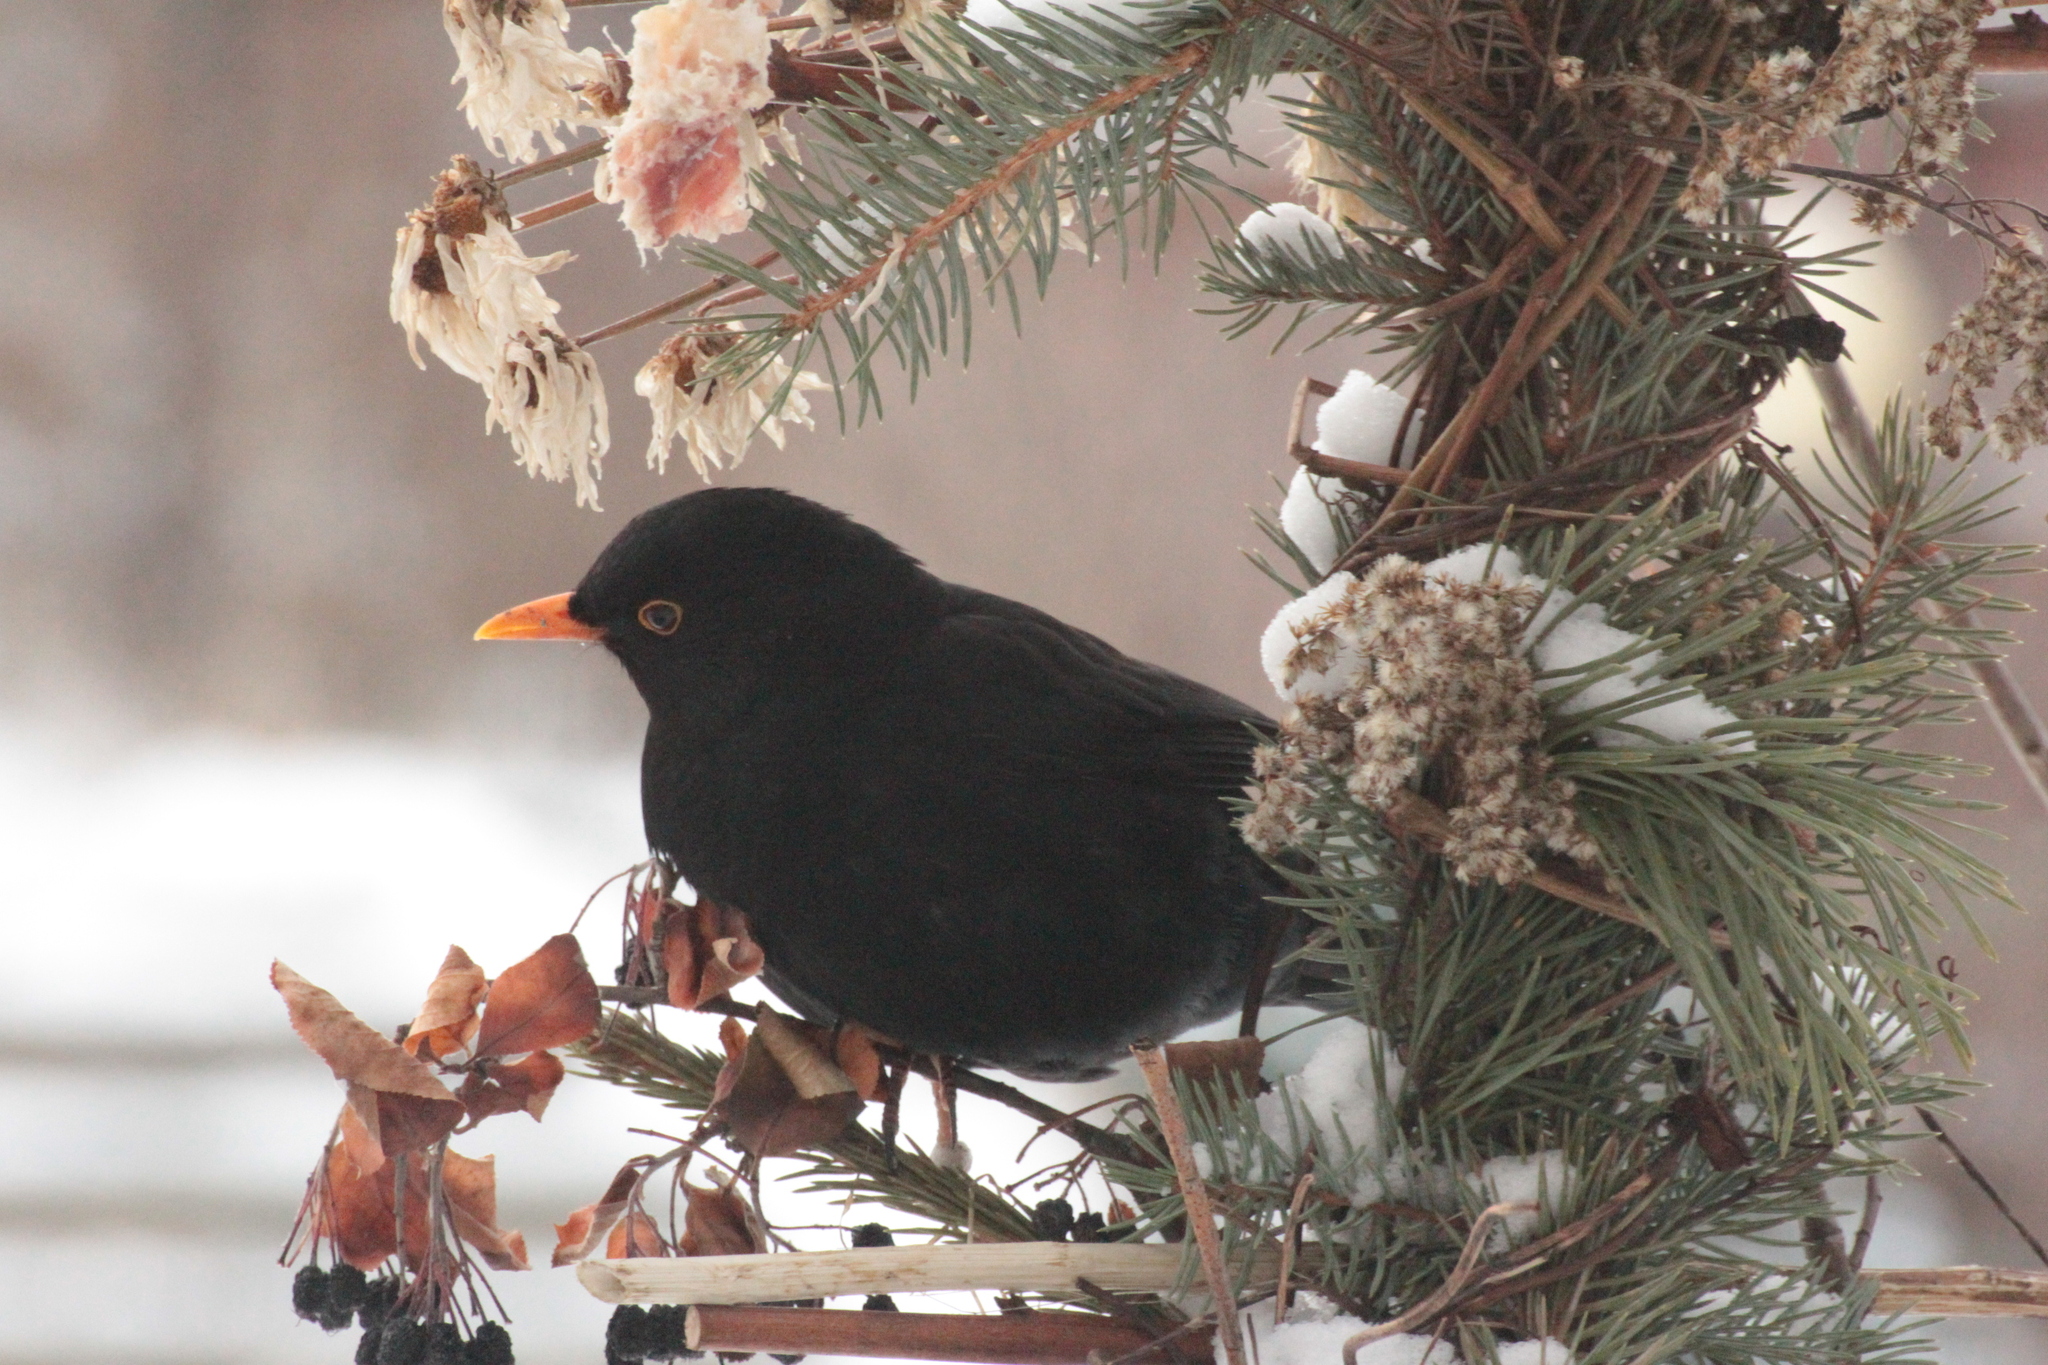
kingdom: Animalia
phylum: Chordata
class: Aves
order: Passeriformes
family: Turdidae
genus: Turdus
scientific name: Turdus merula
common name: Common blackbird
